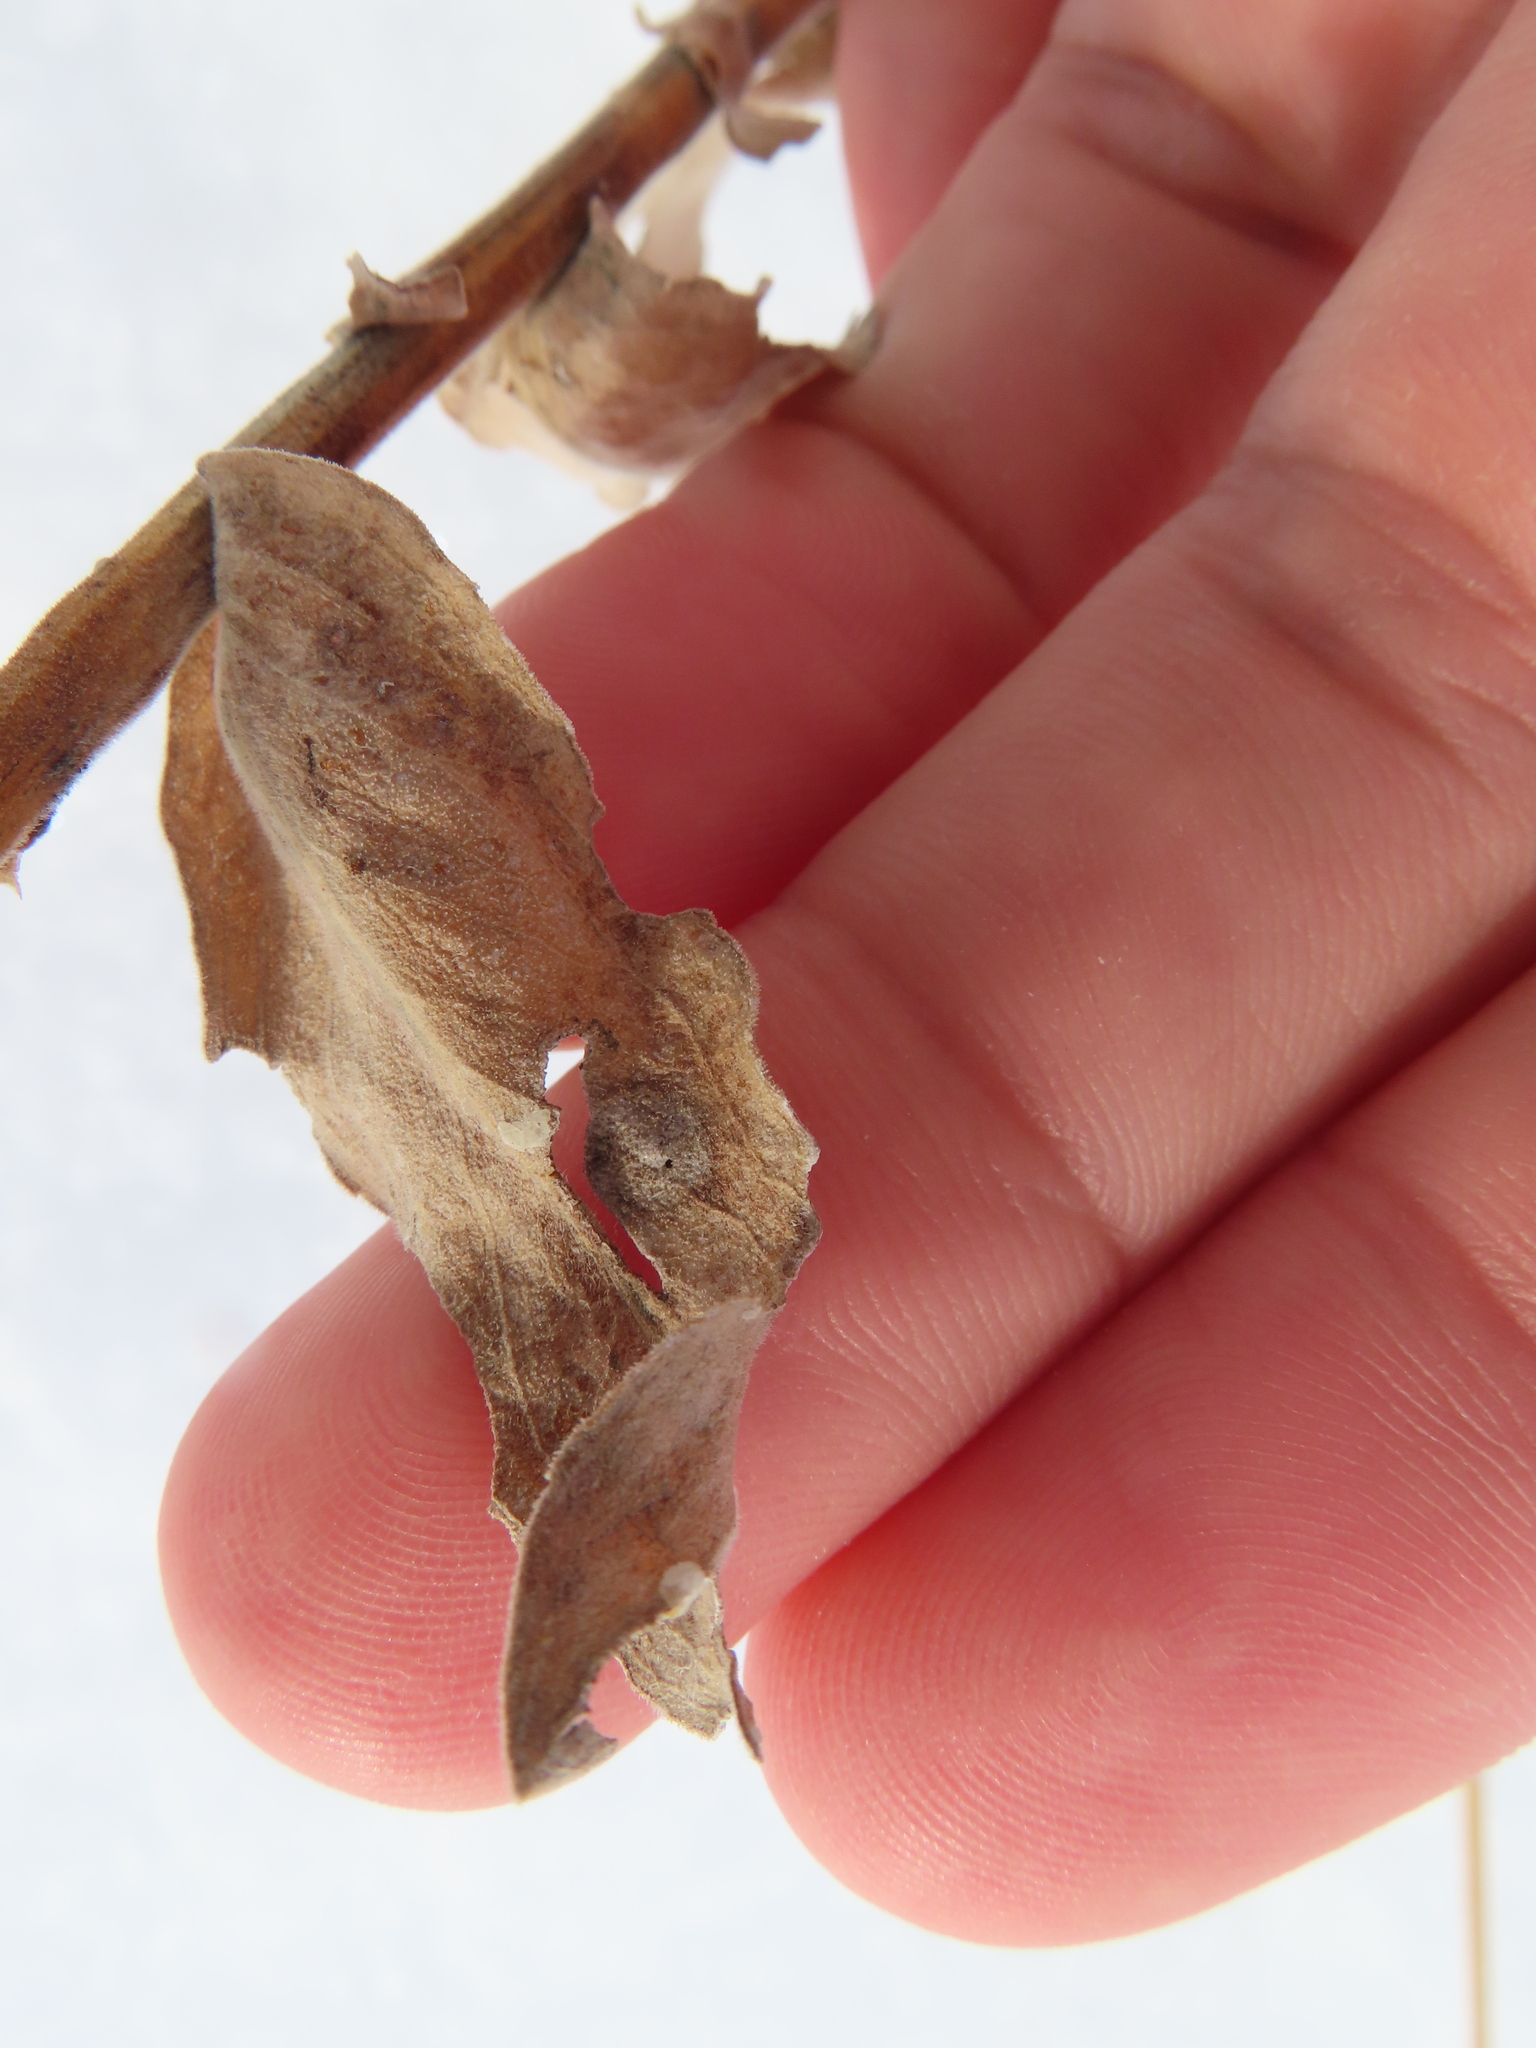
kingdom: Animalia
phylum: Arthropoda
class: Insecta
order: Diptera
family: Cecidomyiidae
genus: Asteromyia
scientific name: Asteromyia carbonifera
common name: Carbonifera goldenrod gall midge
